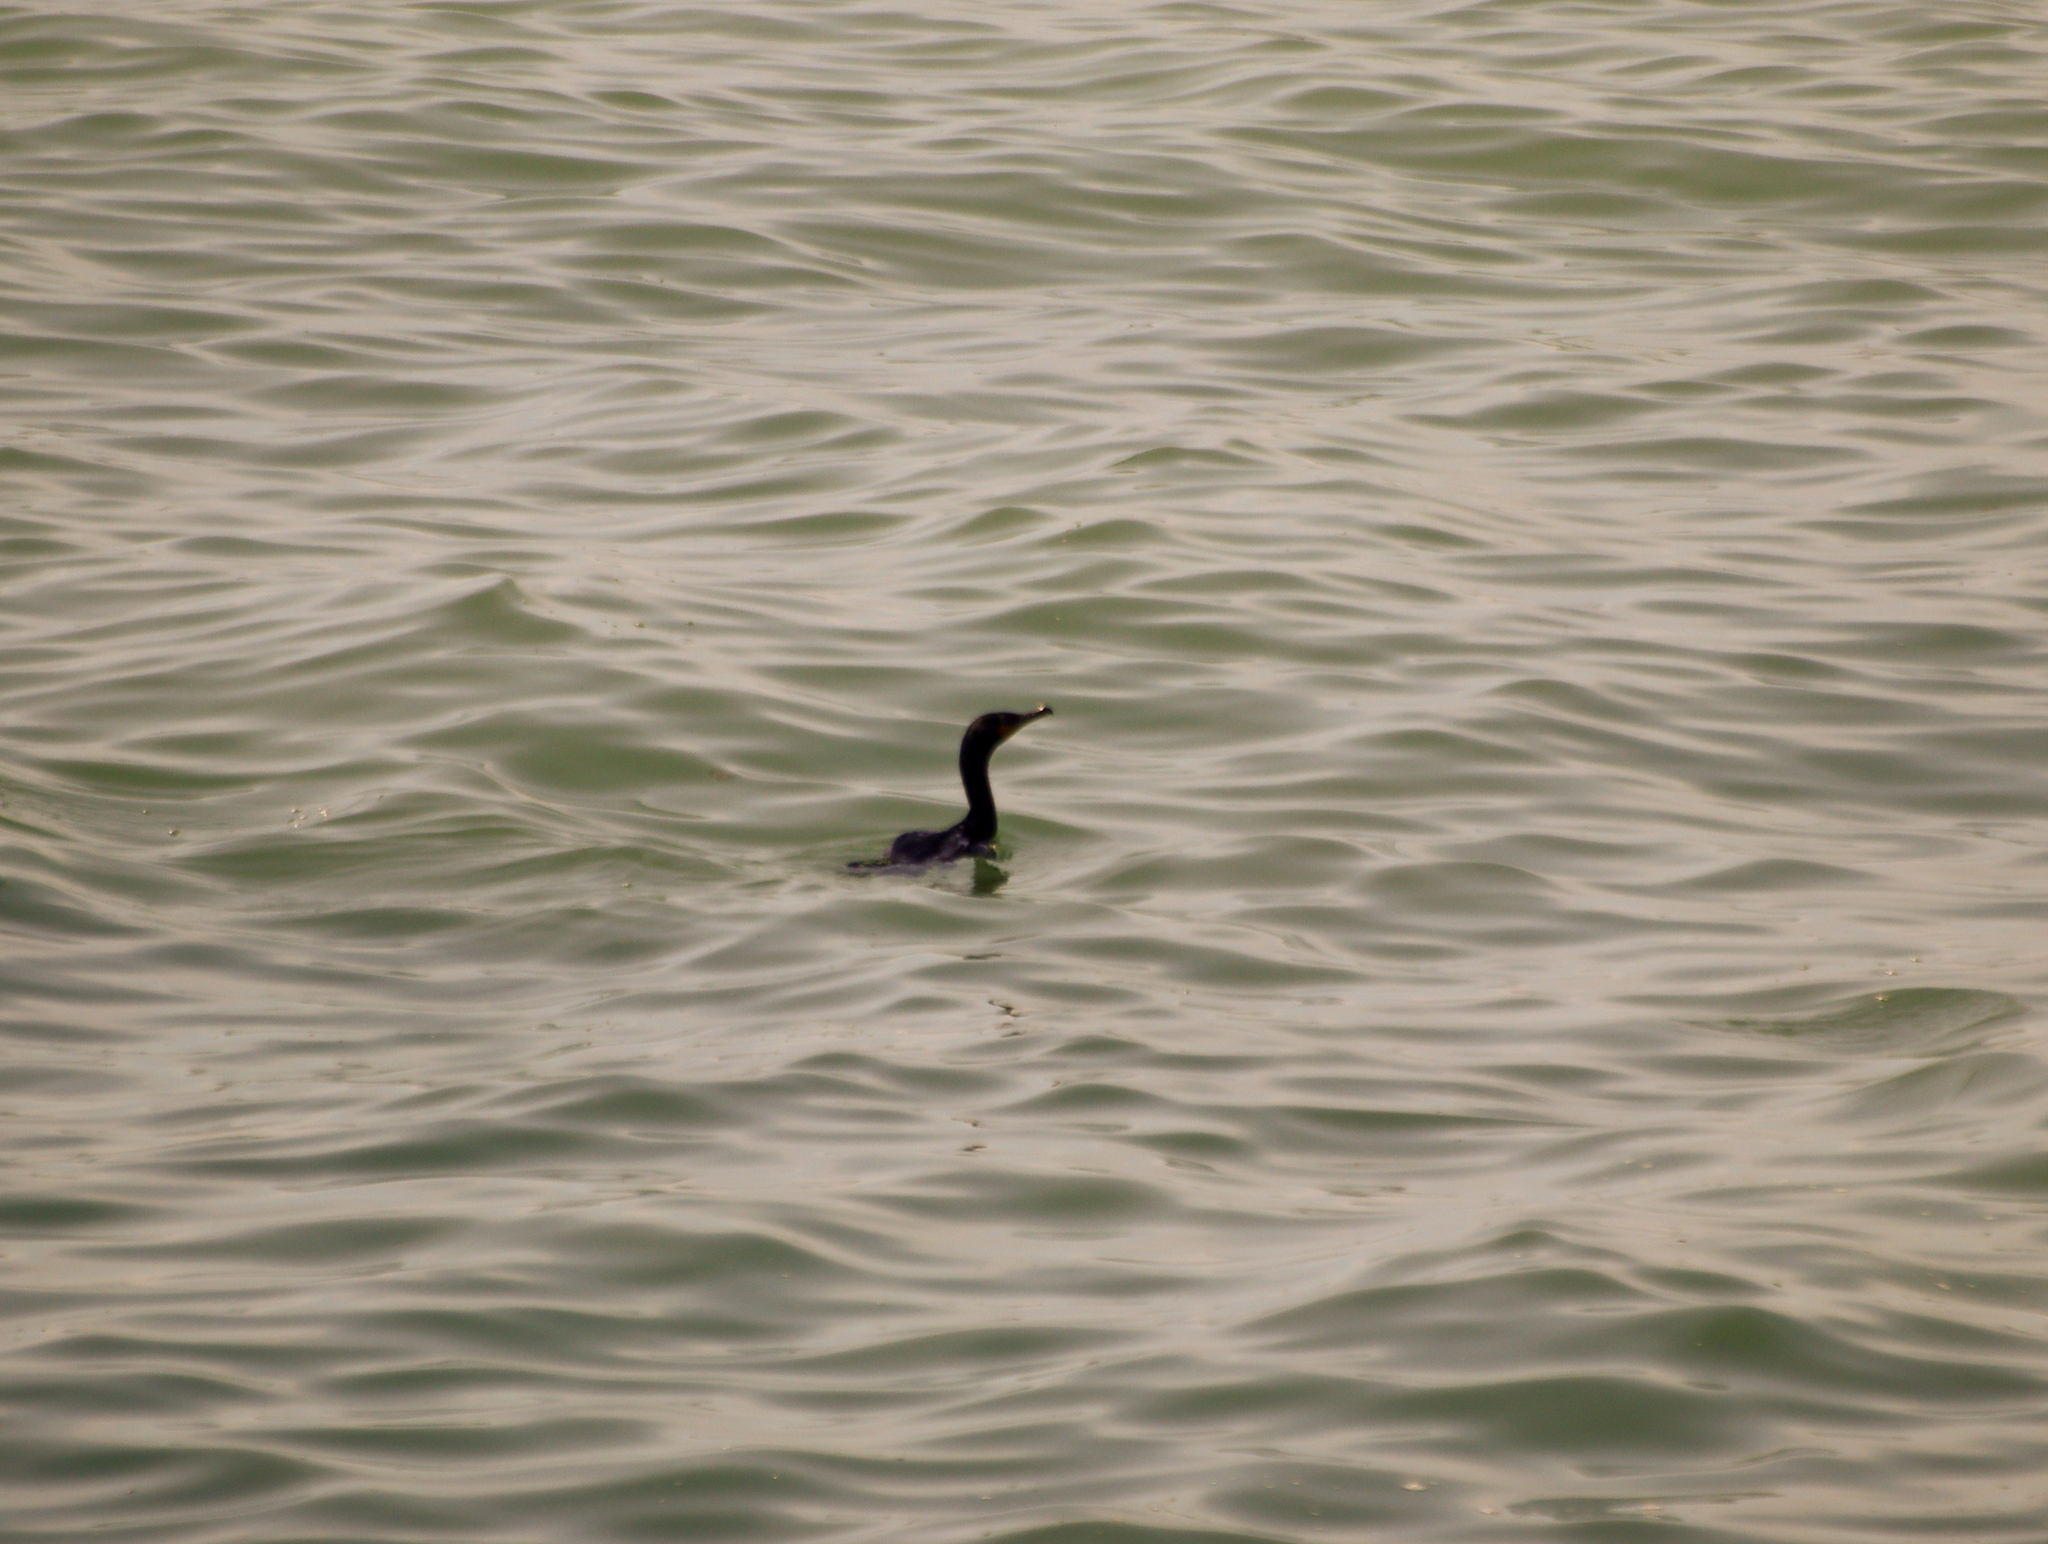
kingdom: Animalia
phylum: Chordata
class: Aves
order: Suliformes
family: Phalacrocoracidae
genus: Phalacrocorax
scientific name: Phalacrocorax auritus
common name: Double-crested cormorant
